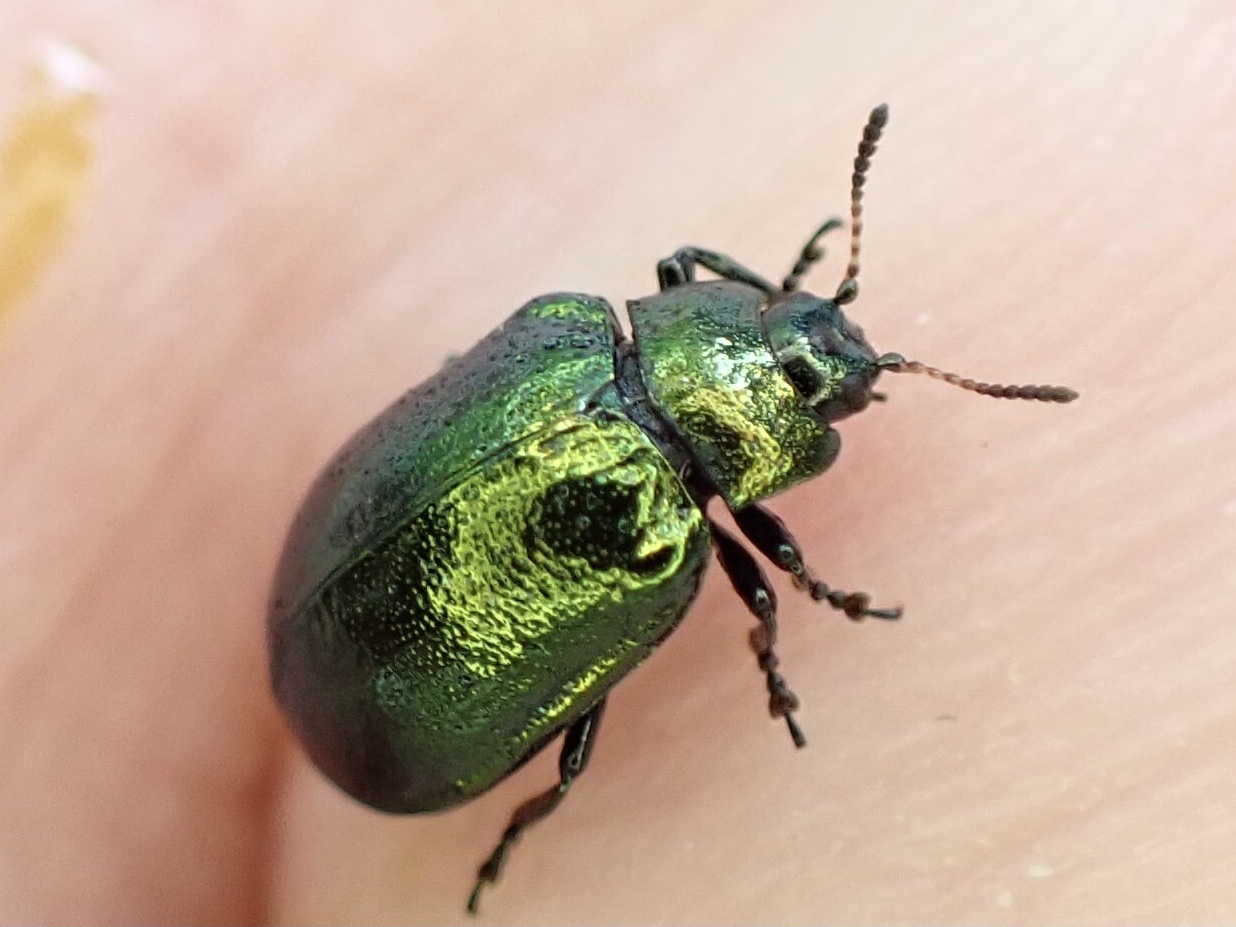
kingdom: Animalia
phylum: Arthropoda
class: Insecta
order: Coleoptera
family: Chrysomelidae
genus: Plagiosterna
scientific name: Plagiosterna aenea
